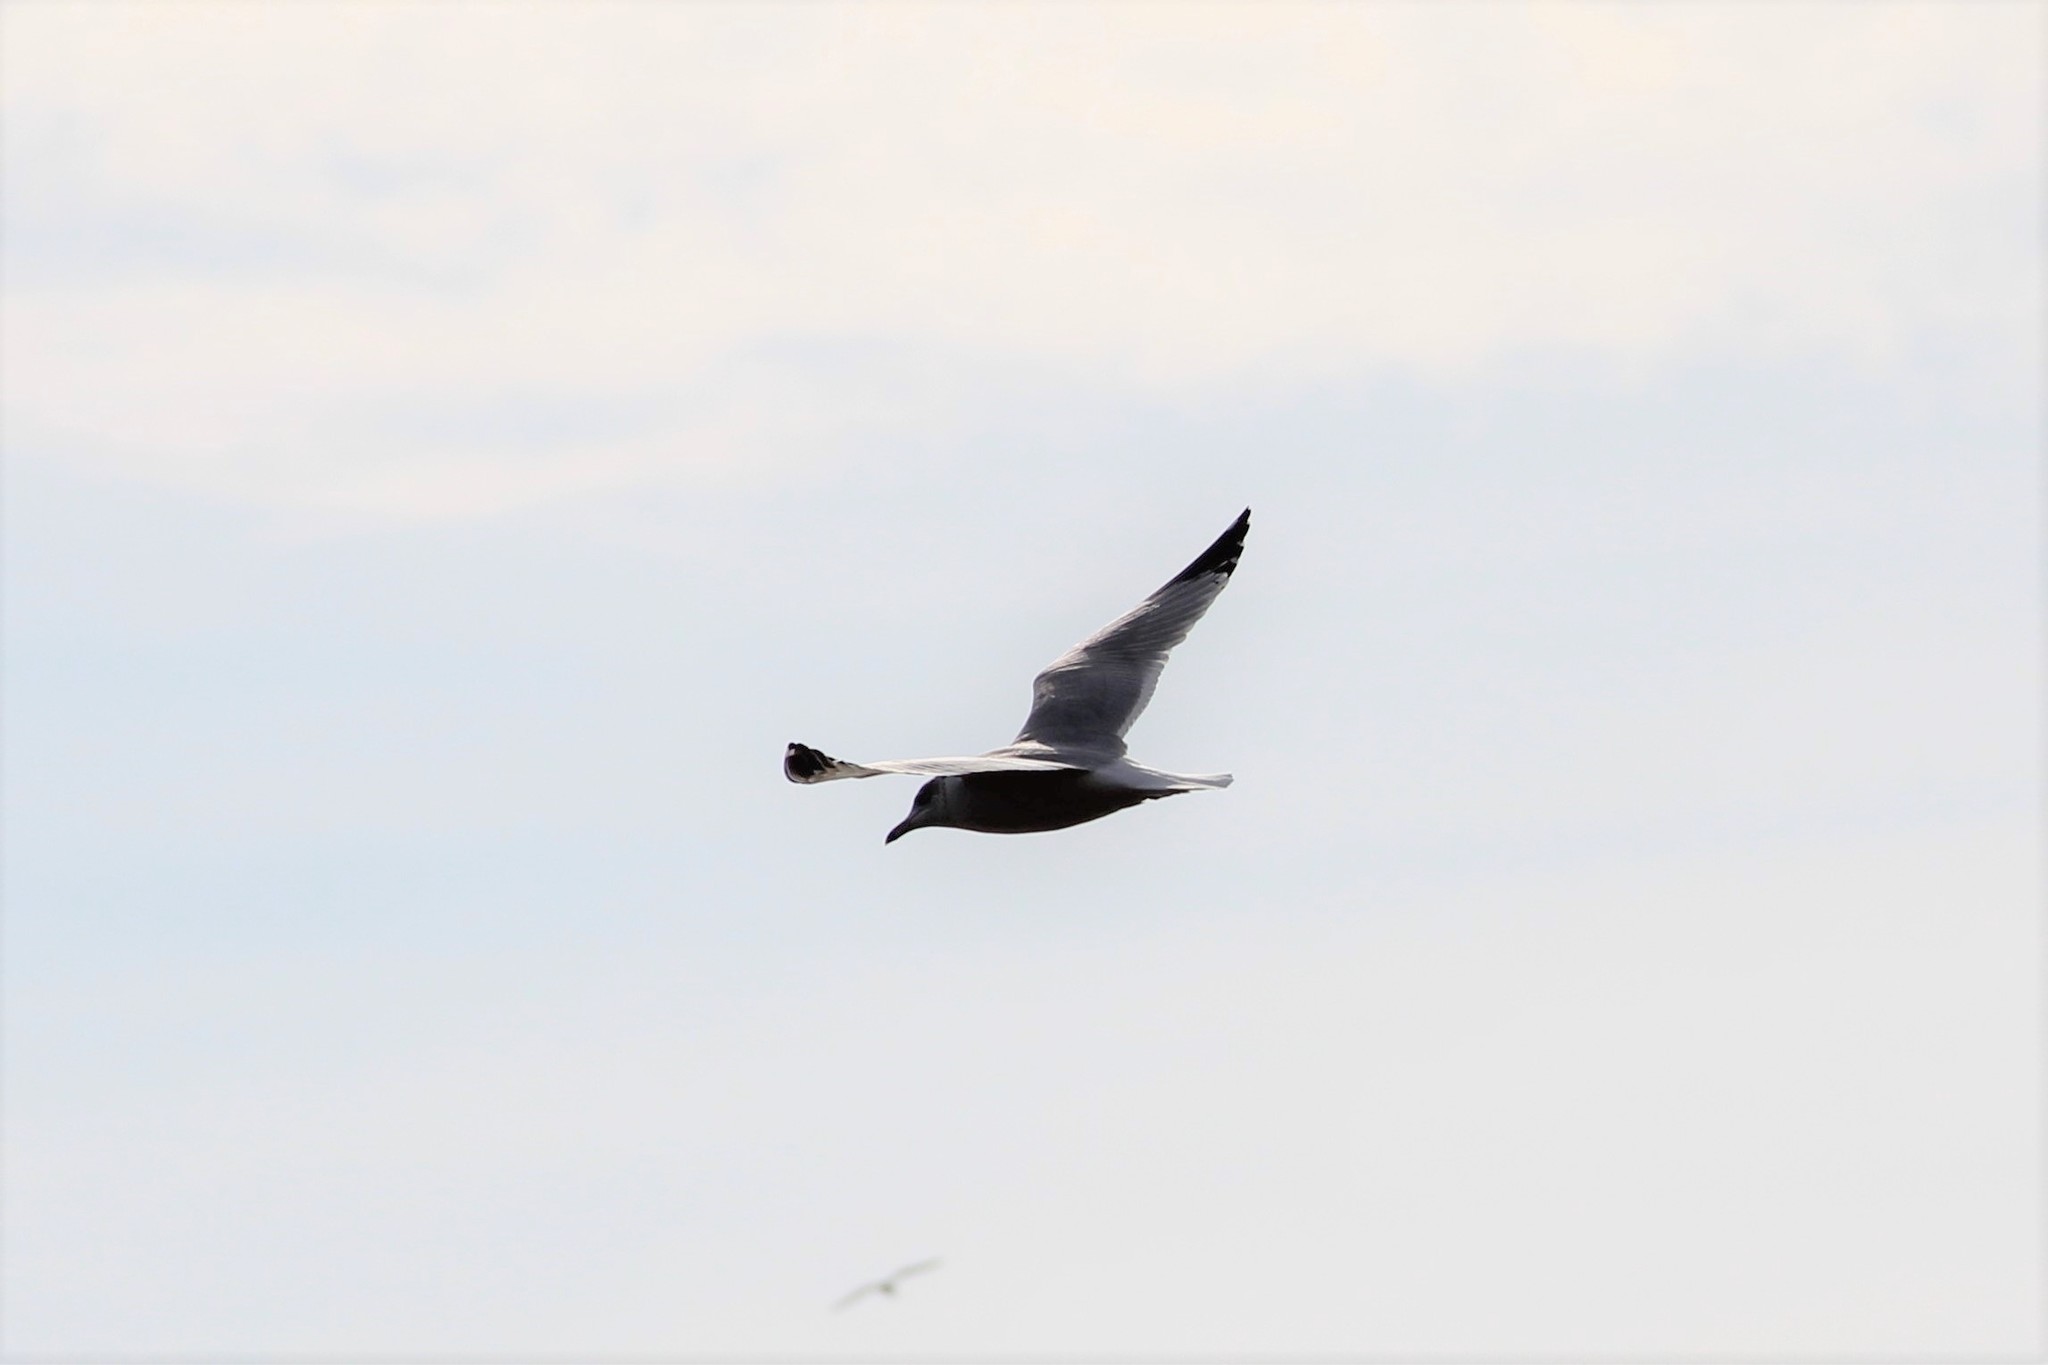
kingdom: Animalia
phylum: Chordata
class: Aves
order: Charadriiformes
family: Laridae
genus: Larus
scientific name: Larus smithsonianus
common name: American herring gull
